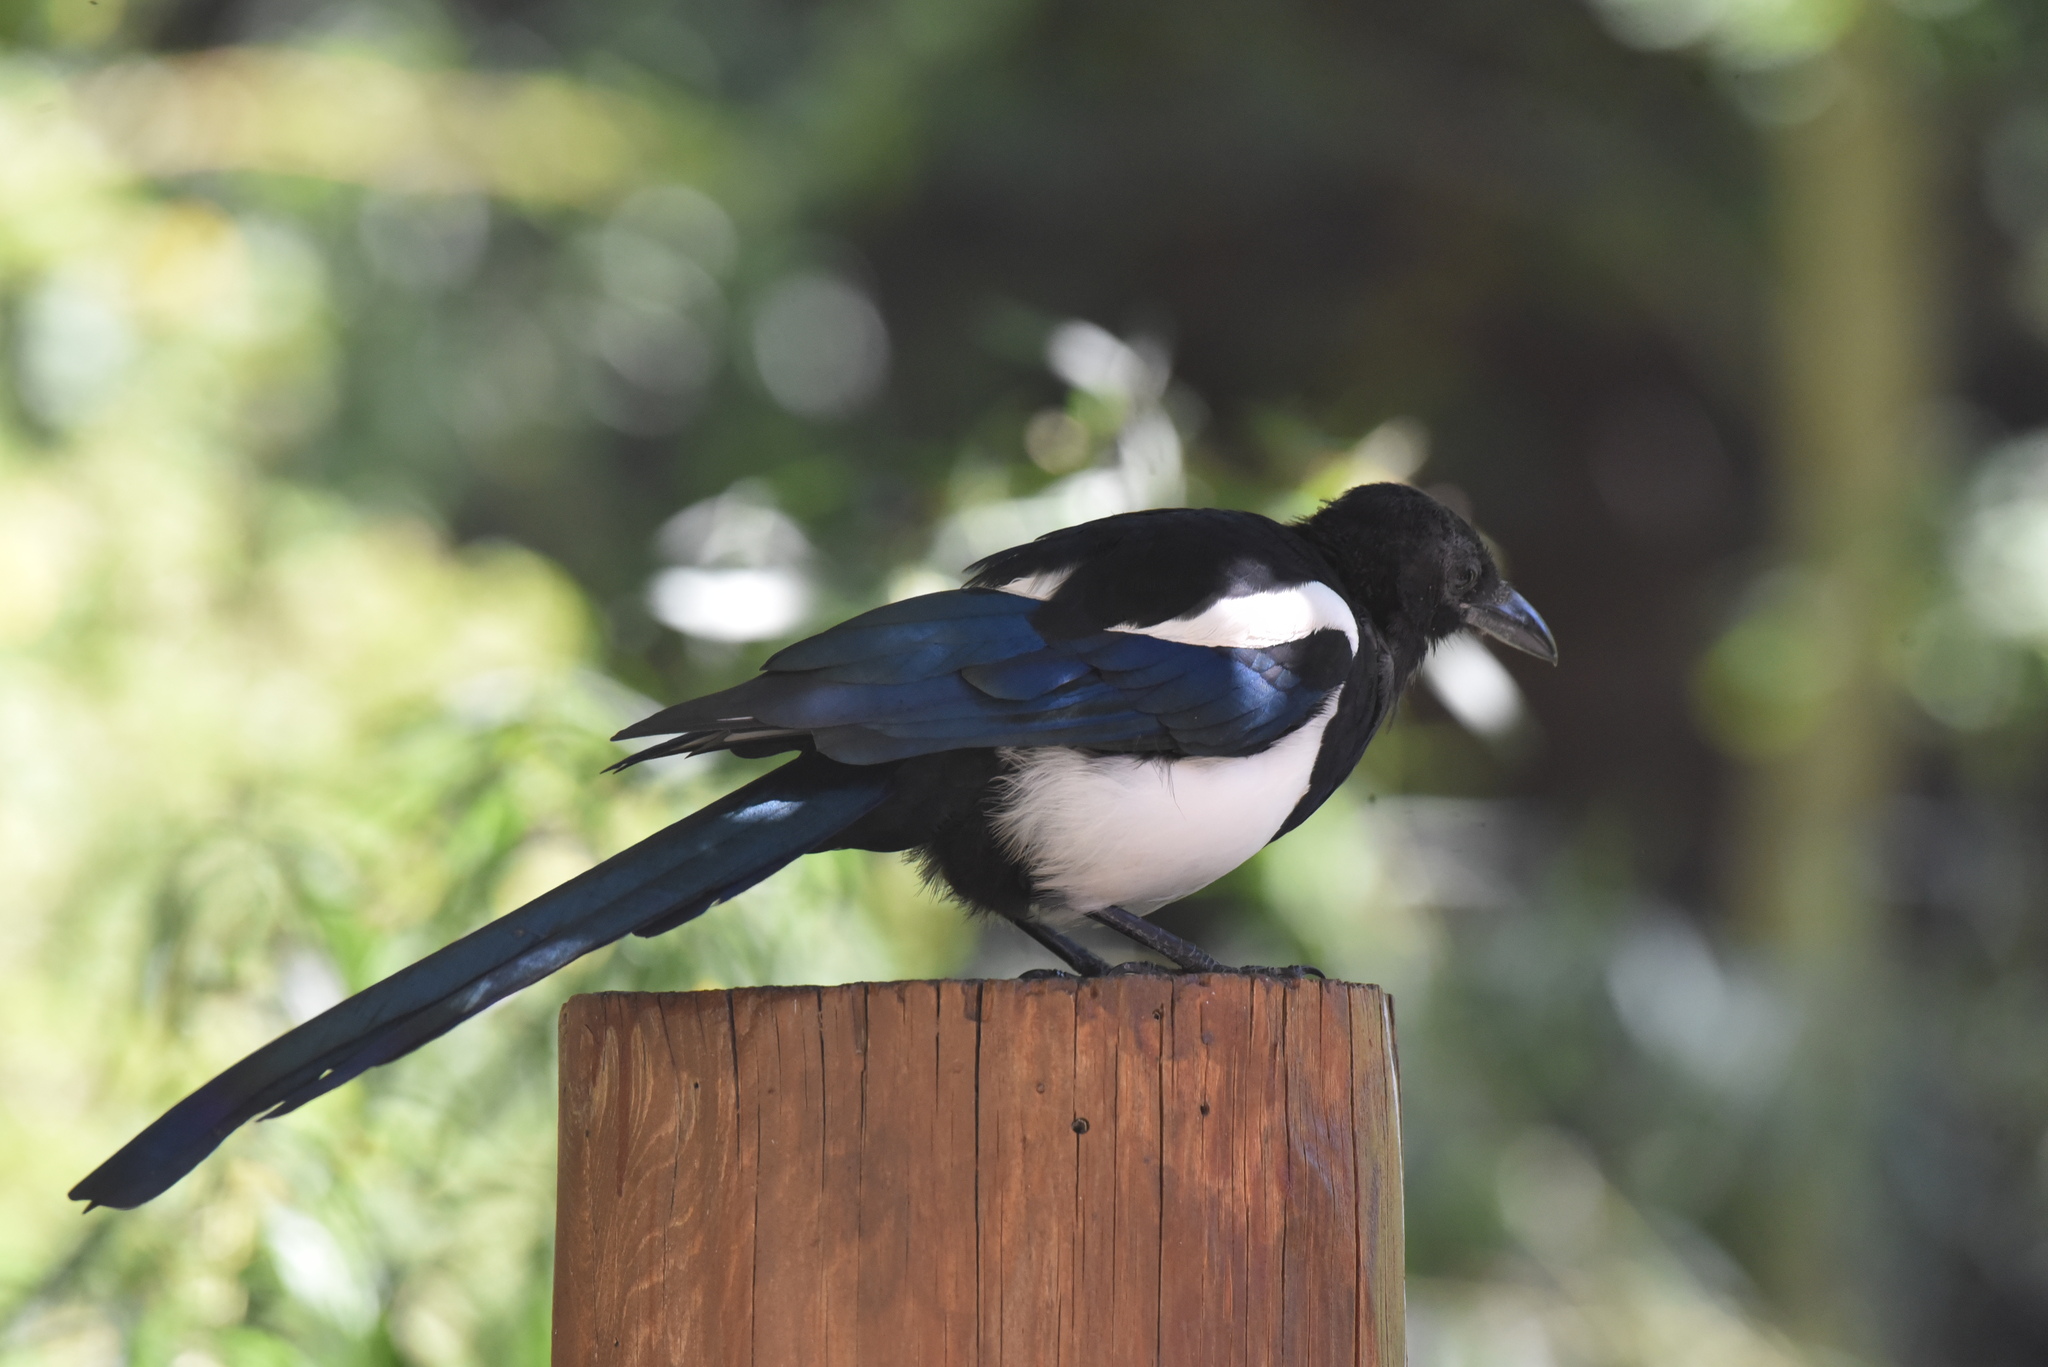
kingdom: Animalia
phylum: Chordata
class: Aves
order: Passeriformes
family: Corvidae
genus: Pica
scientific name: Pica hudsonia
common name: Black-billed magpie
